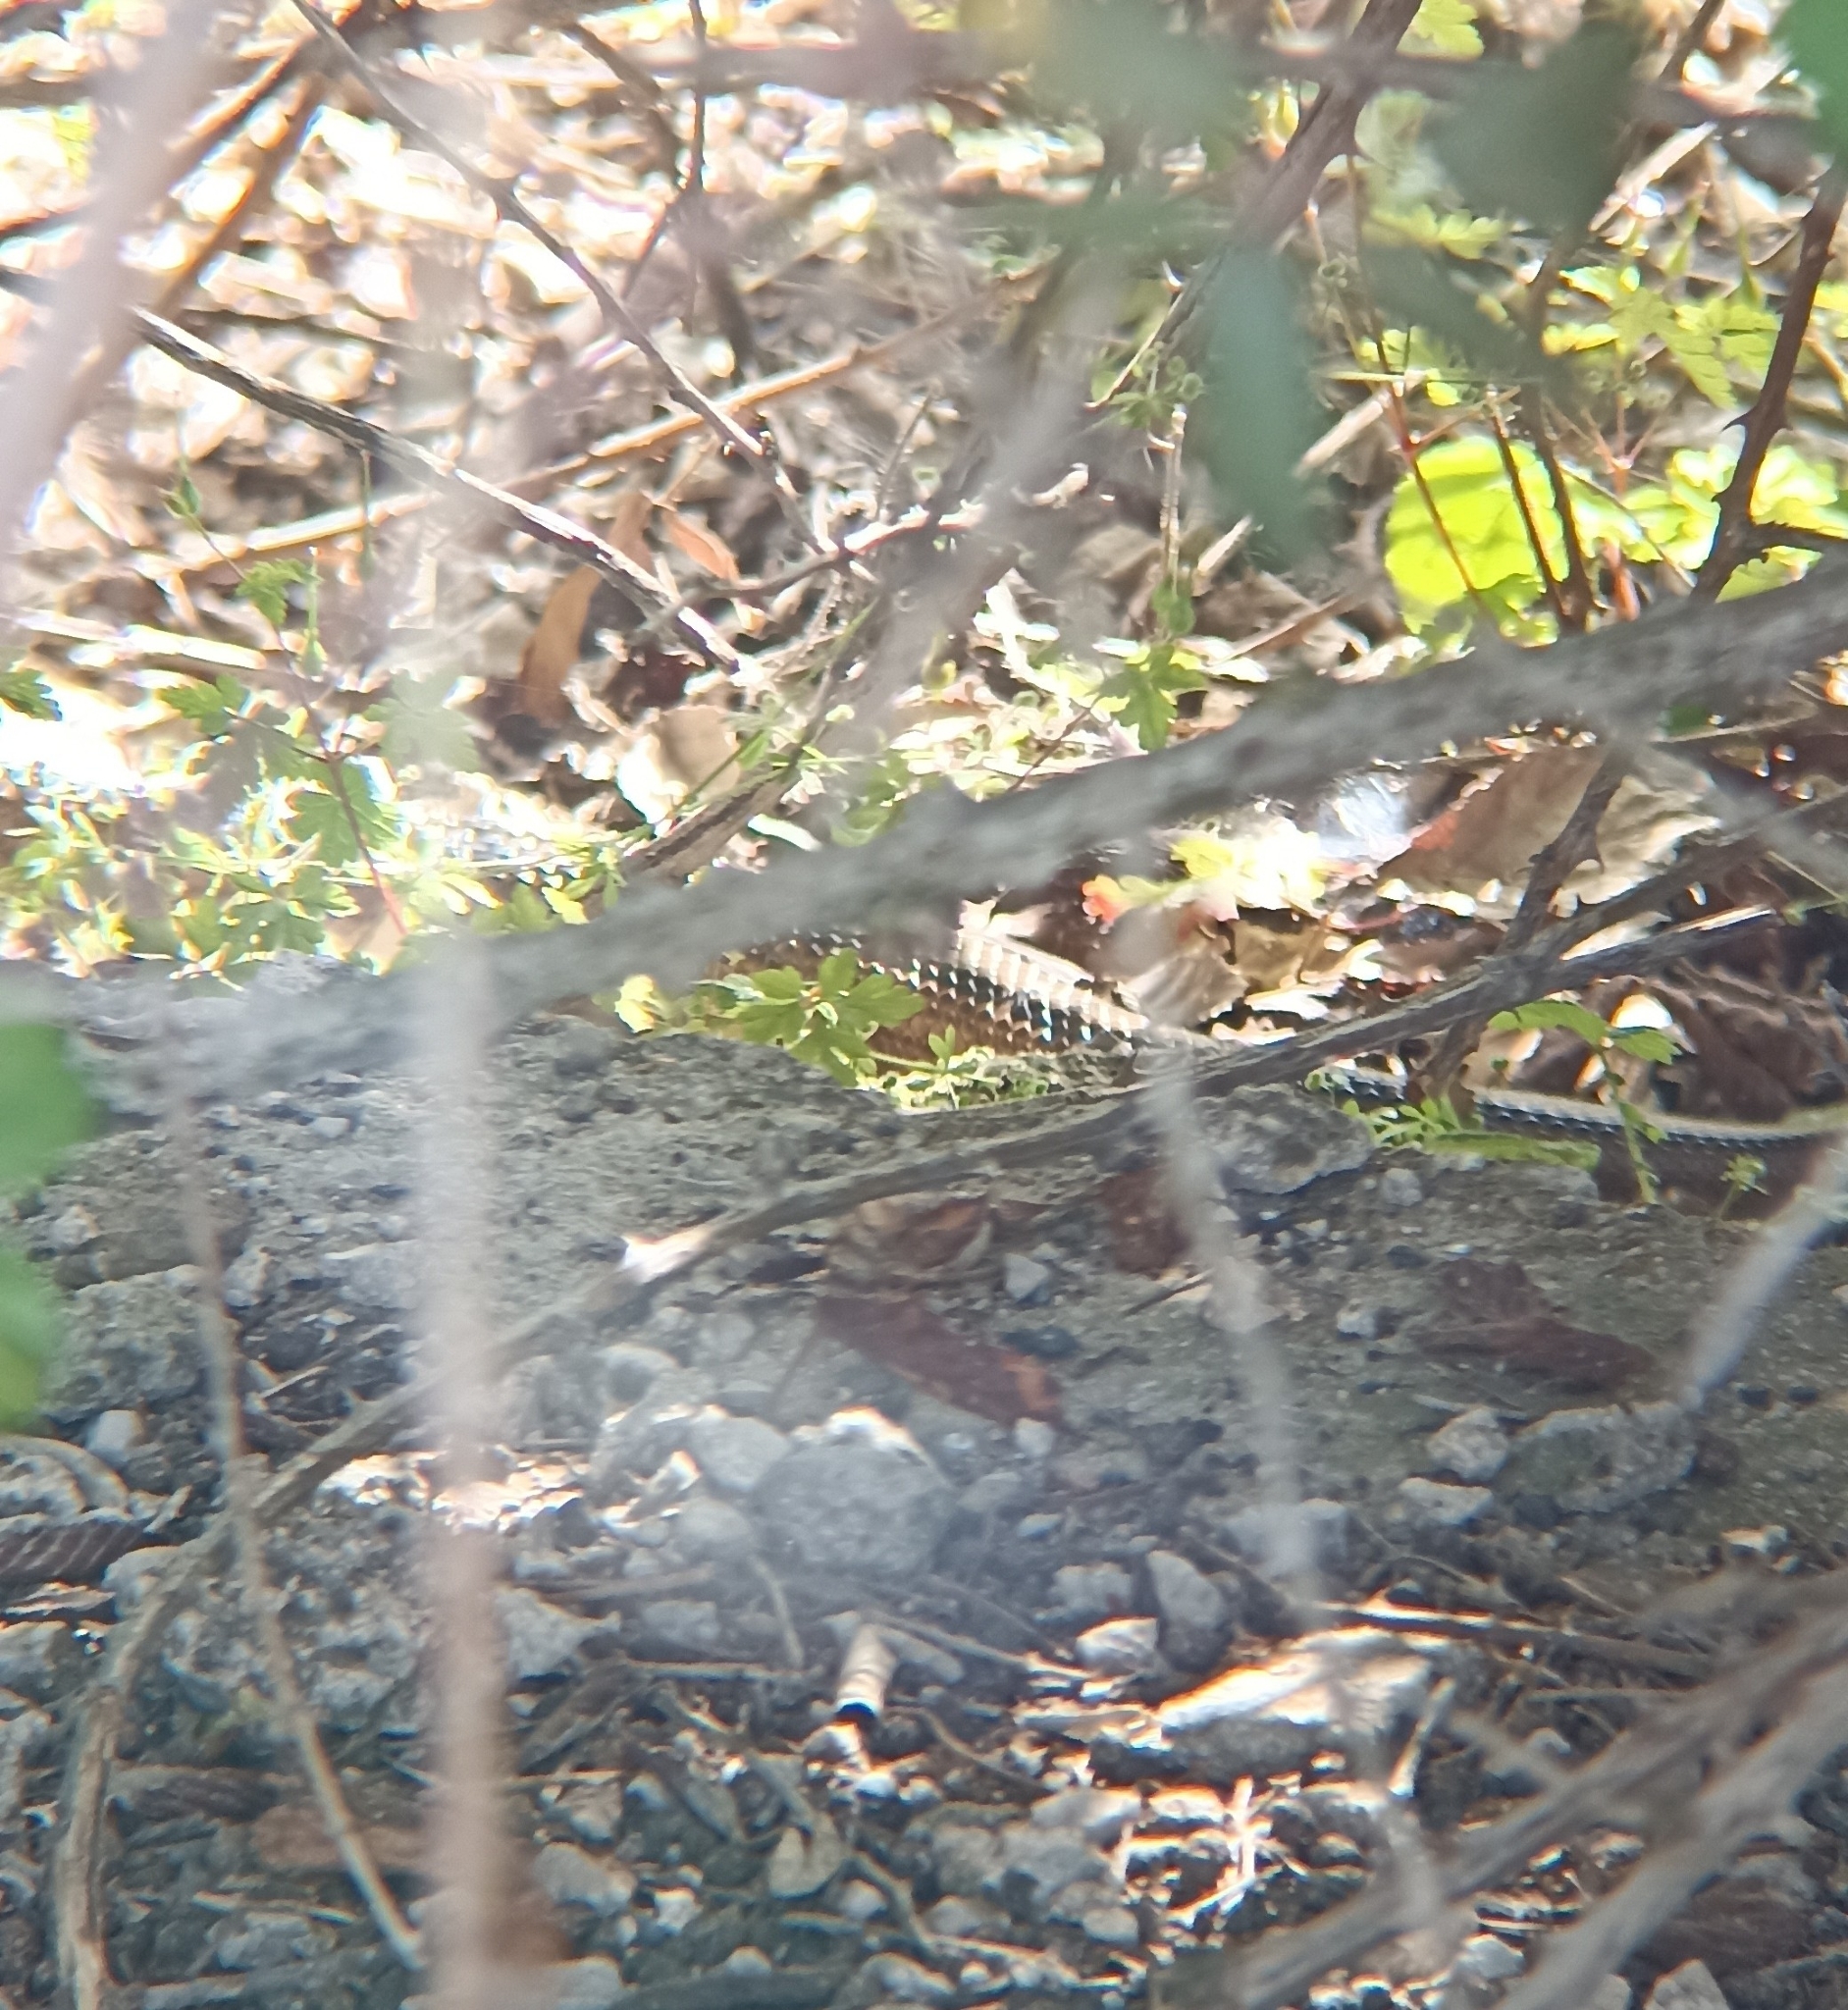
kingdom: Animalia
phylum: Chordata
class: Squamata
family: Colubridae
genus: Zamenis
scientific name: Zamenis scalaris
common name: Ladder snakes
